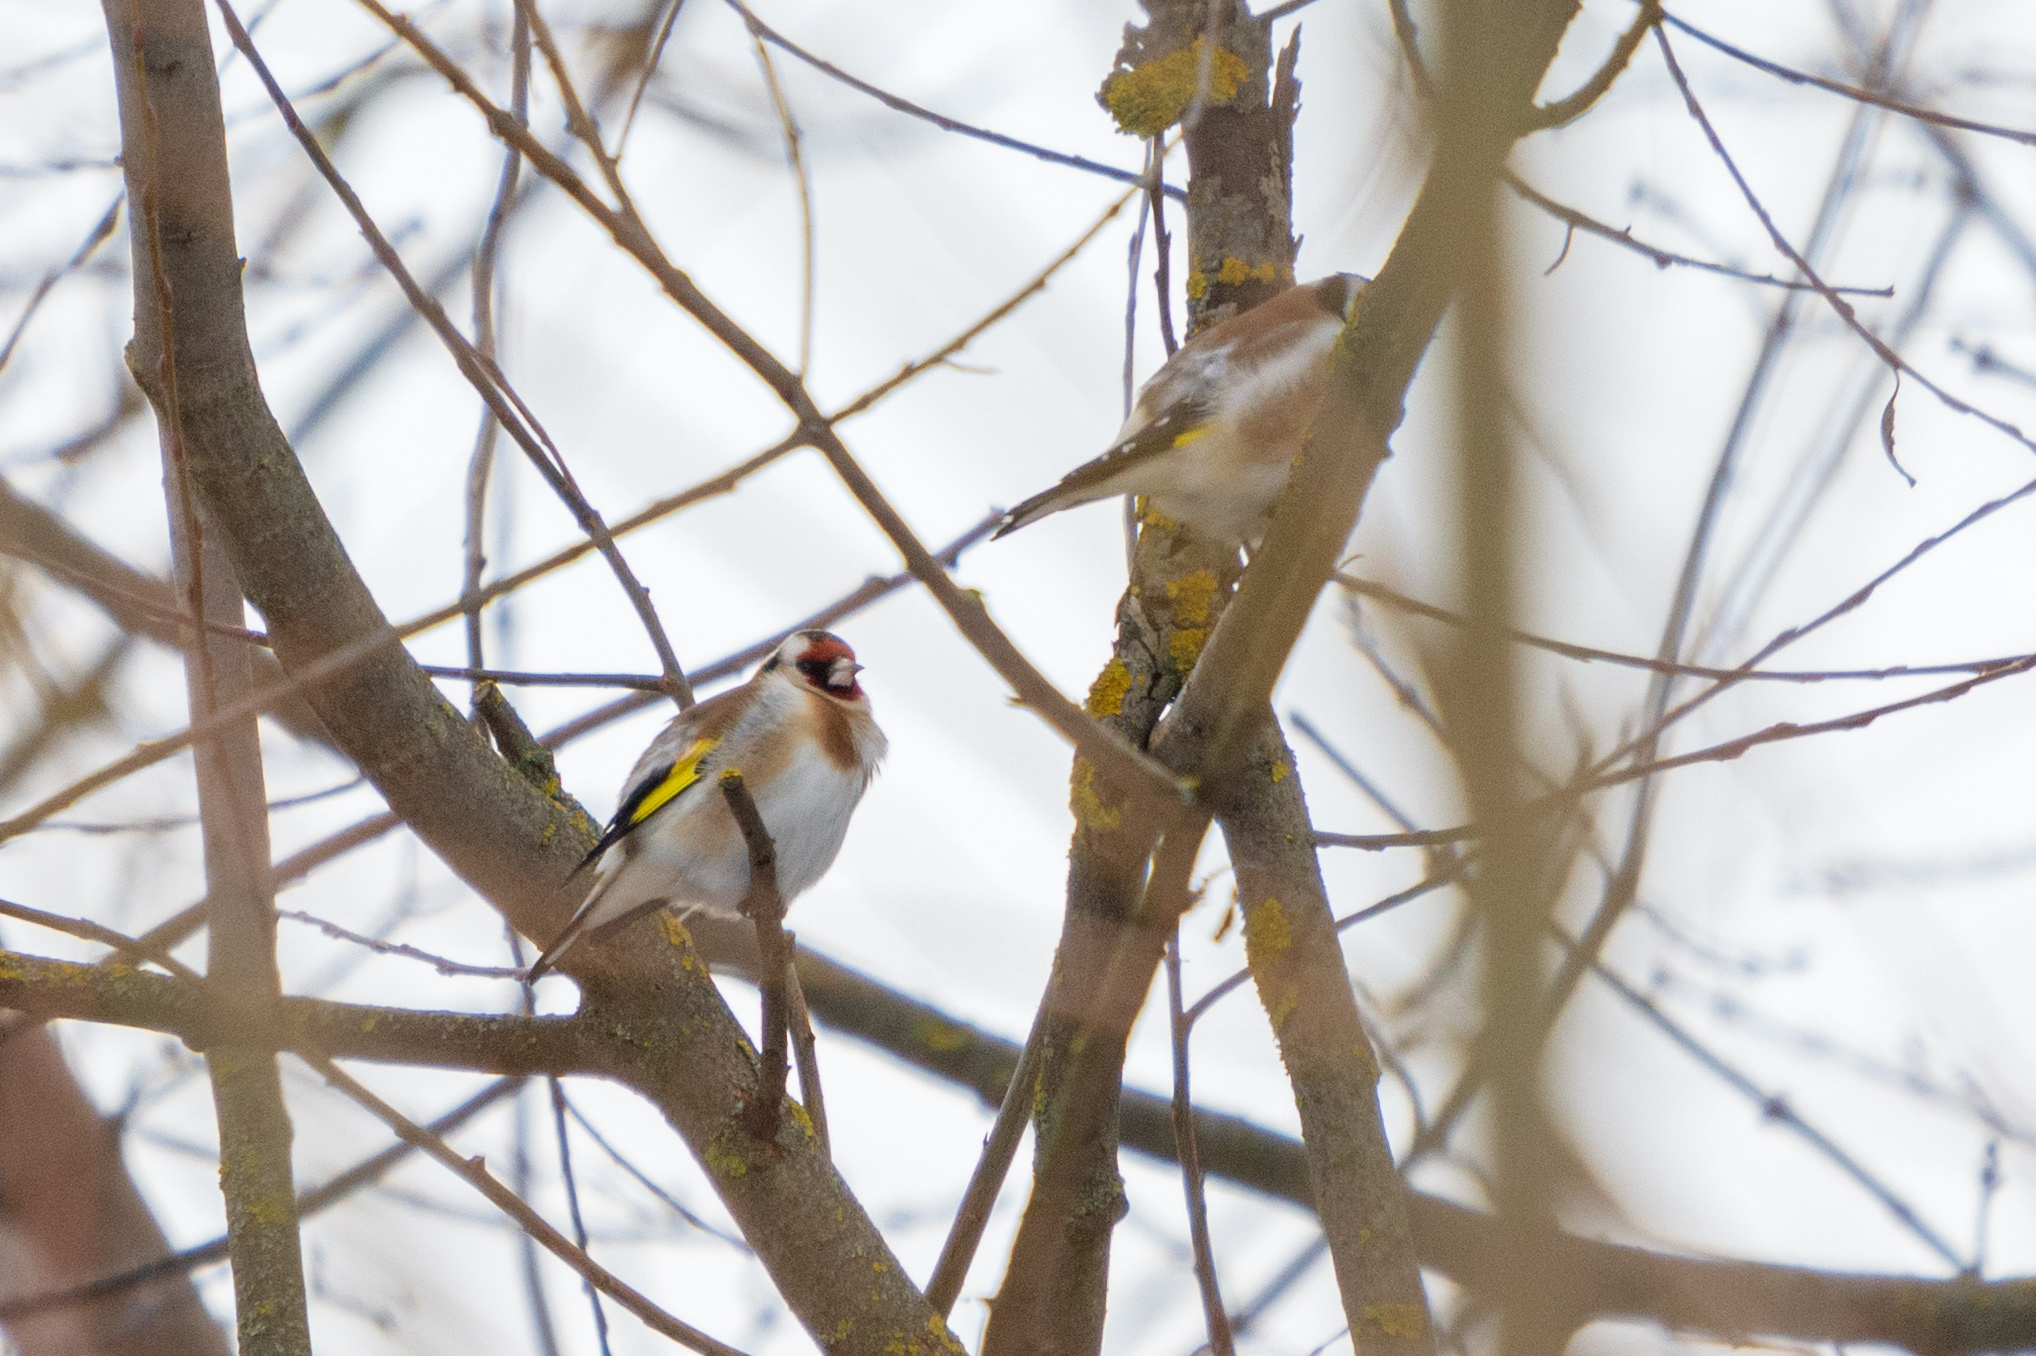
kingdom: Animalia
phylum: Chordata
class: Aves
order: Passeriformes
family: Fringillidae
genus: Carduelis
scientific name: Carduelis carduelis
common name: European goldfinch
